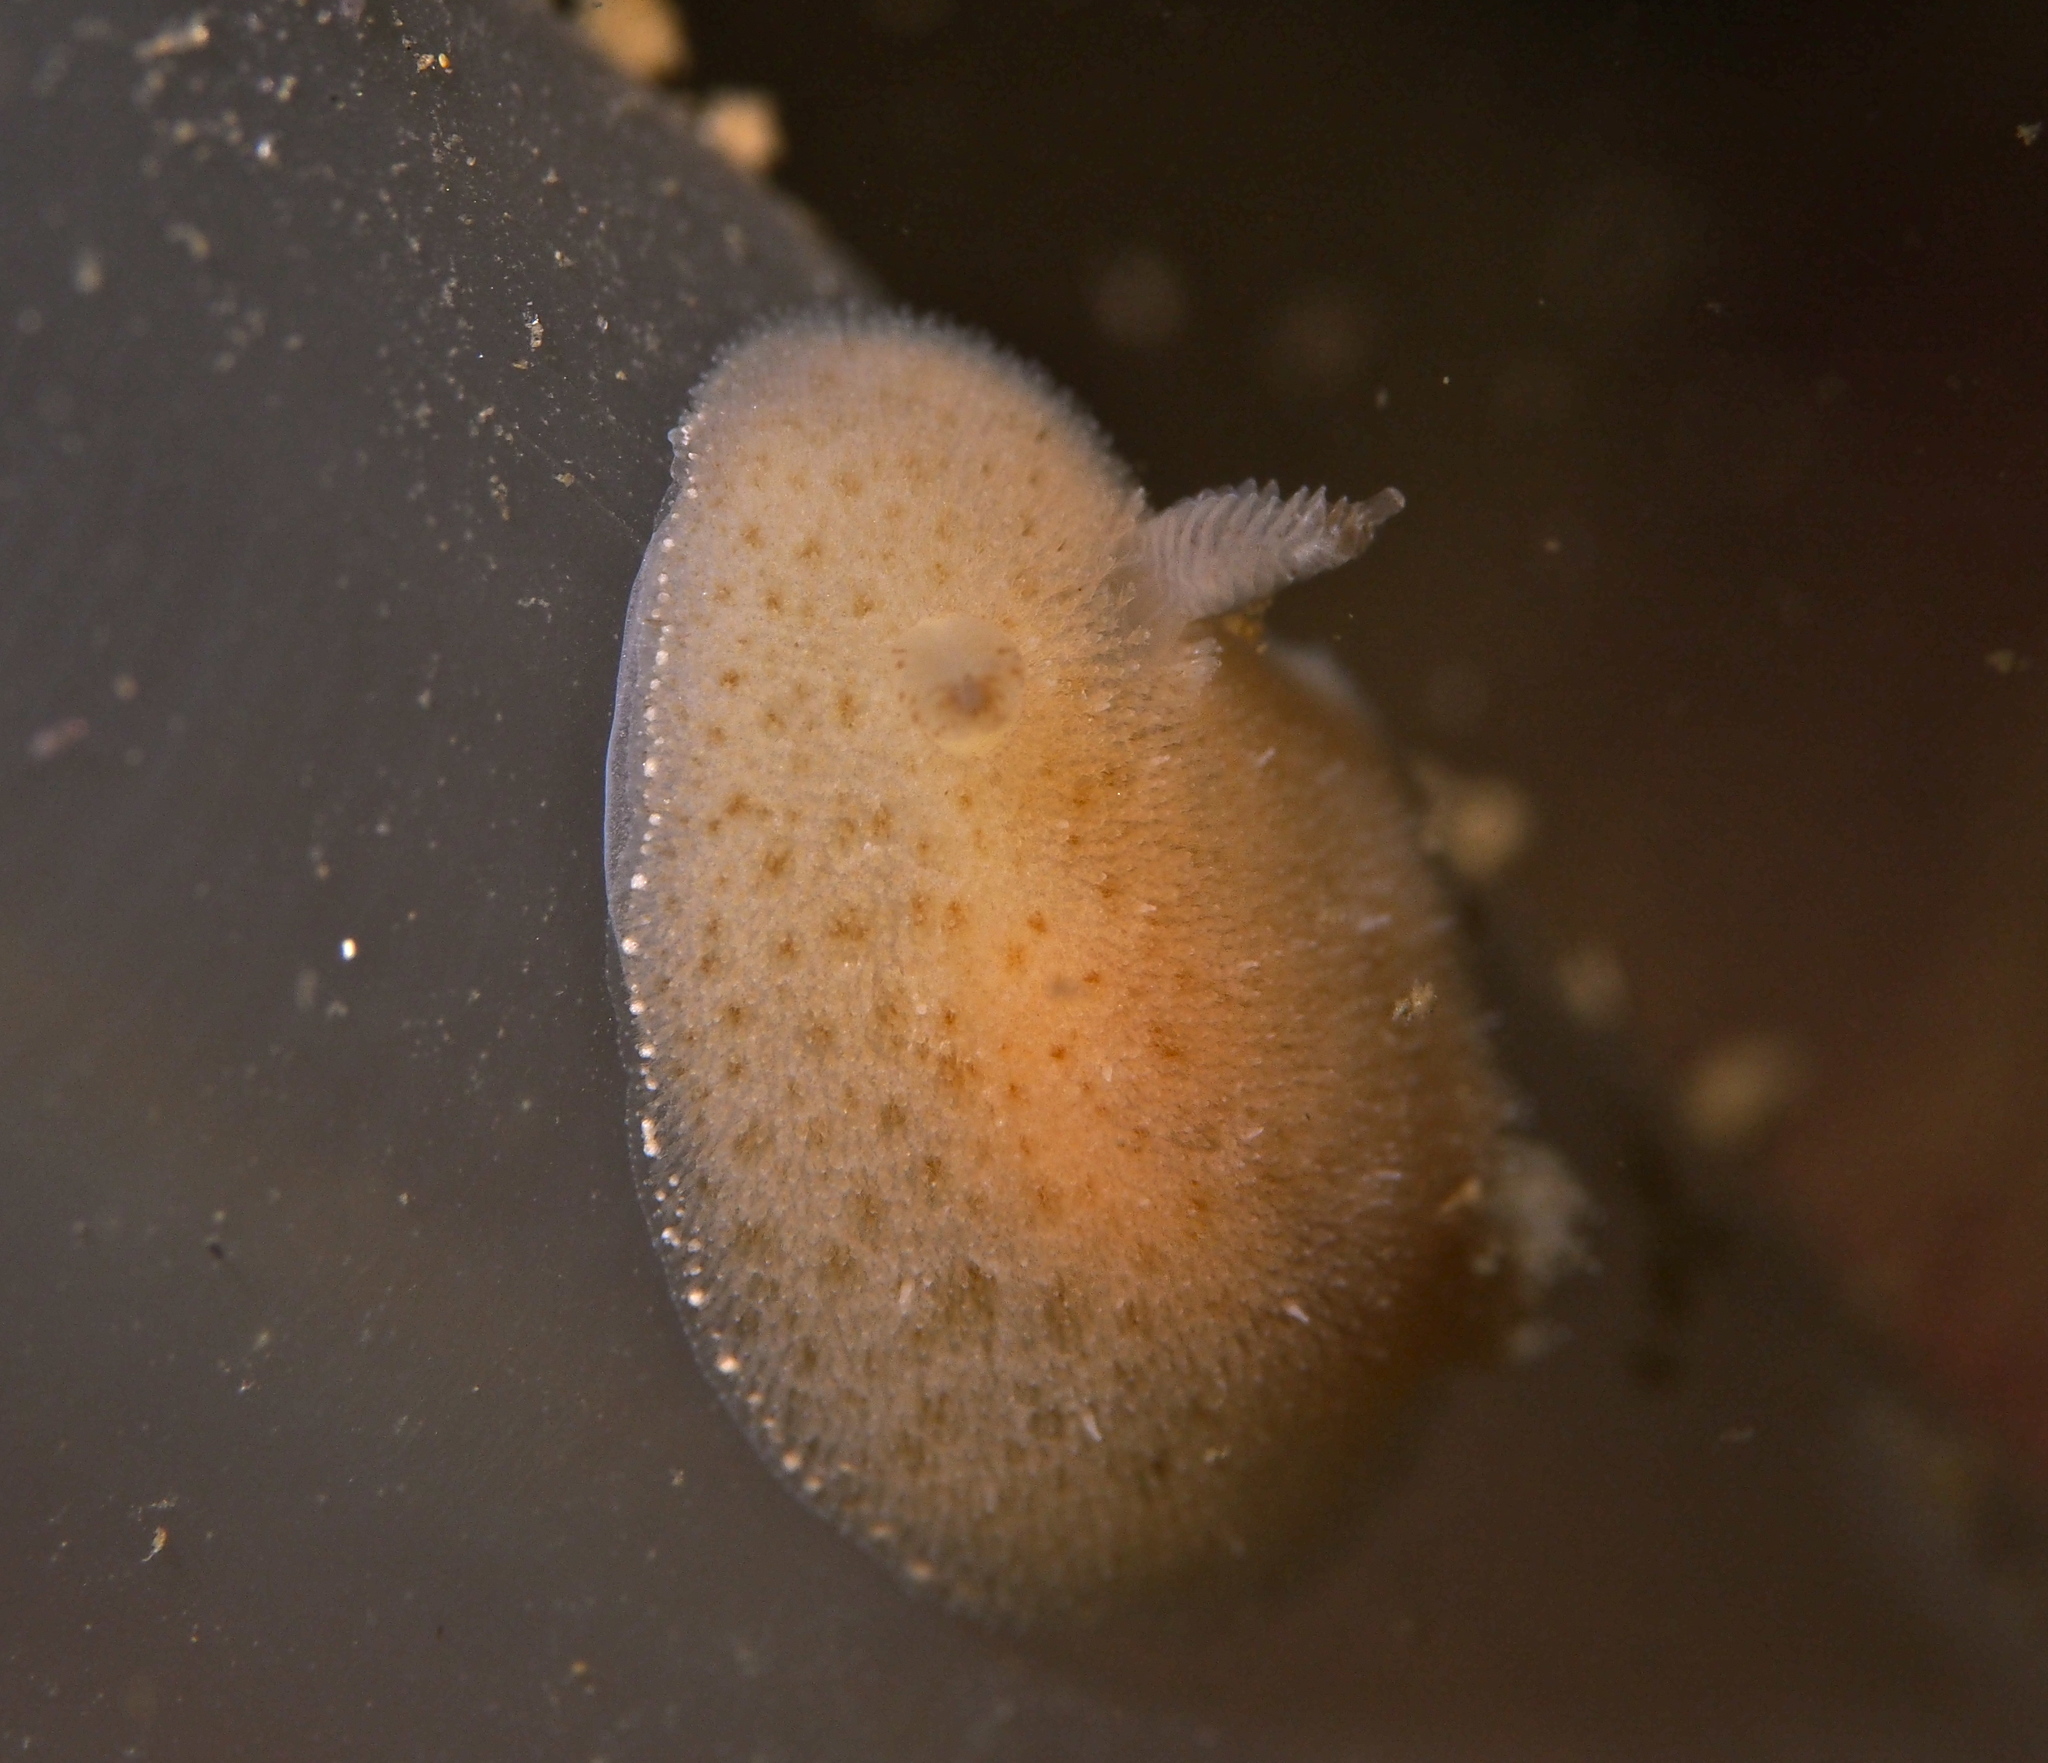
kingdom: Animalia
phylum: Mollusca
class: Gastropoda
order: Nudibranchia
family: Discodorididae
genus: Jorunna
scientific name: Jorunna tomentosa
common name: Grey sea slug
